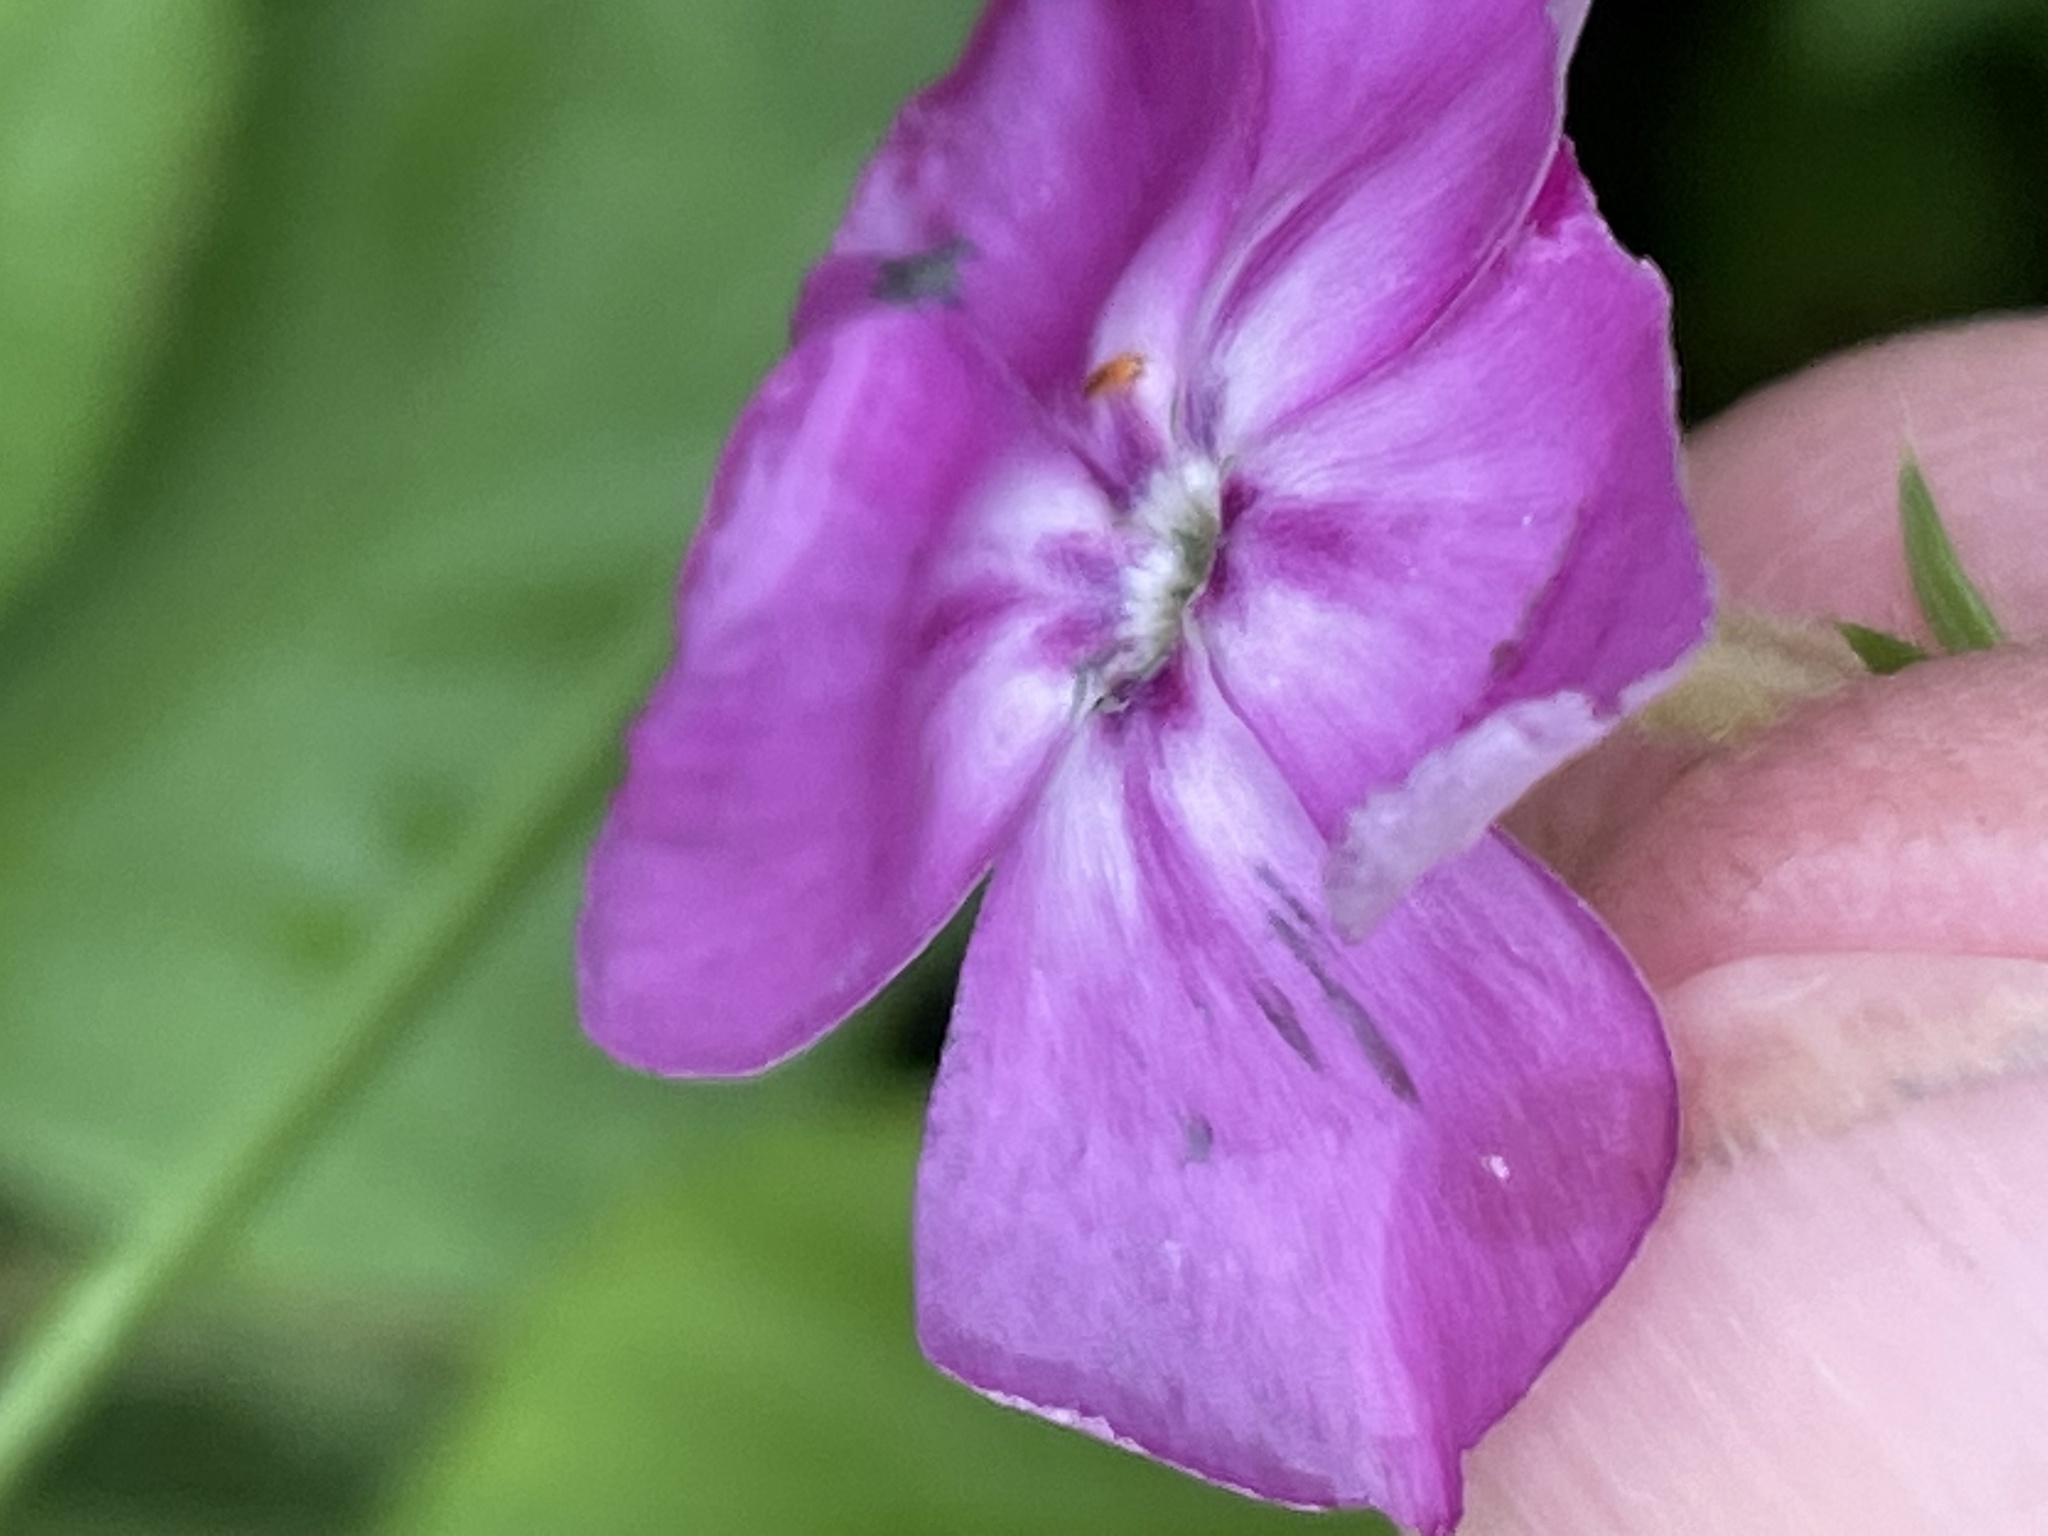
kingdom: Plantae
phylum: Tracheophyta
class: Magnoliopsida
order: Ericales
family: Polemoniaceae
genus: Phlox
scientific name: Phlox drummondii
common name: Drummond's phlox
